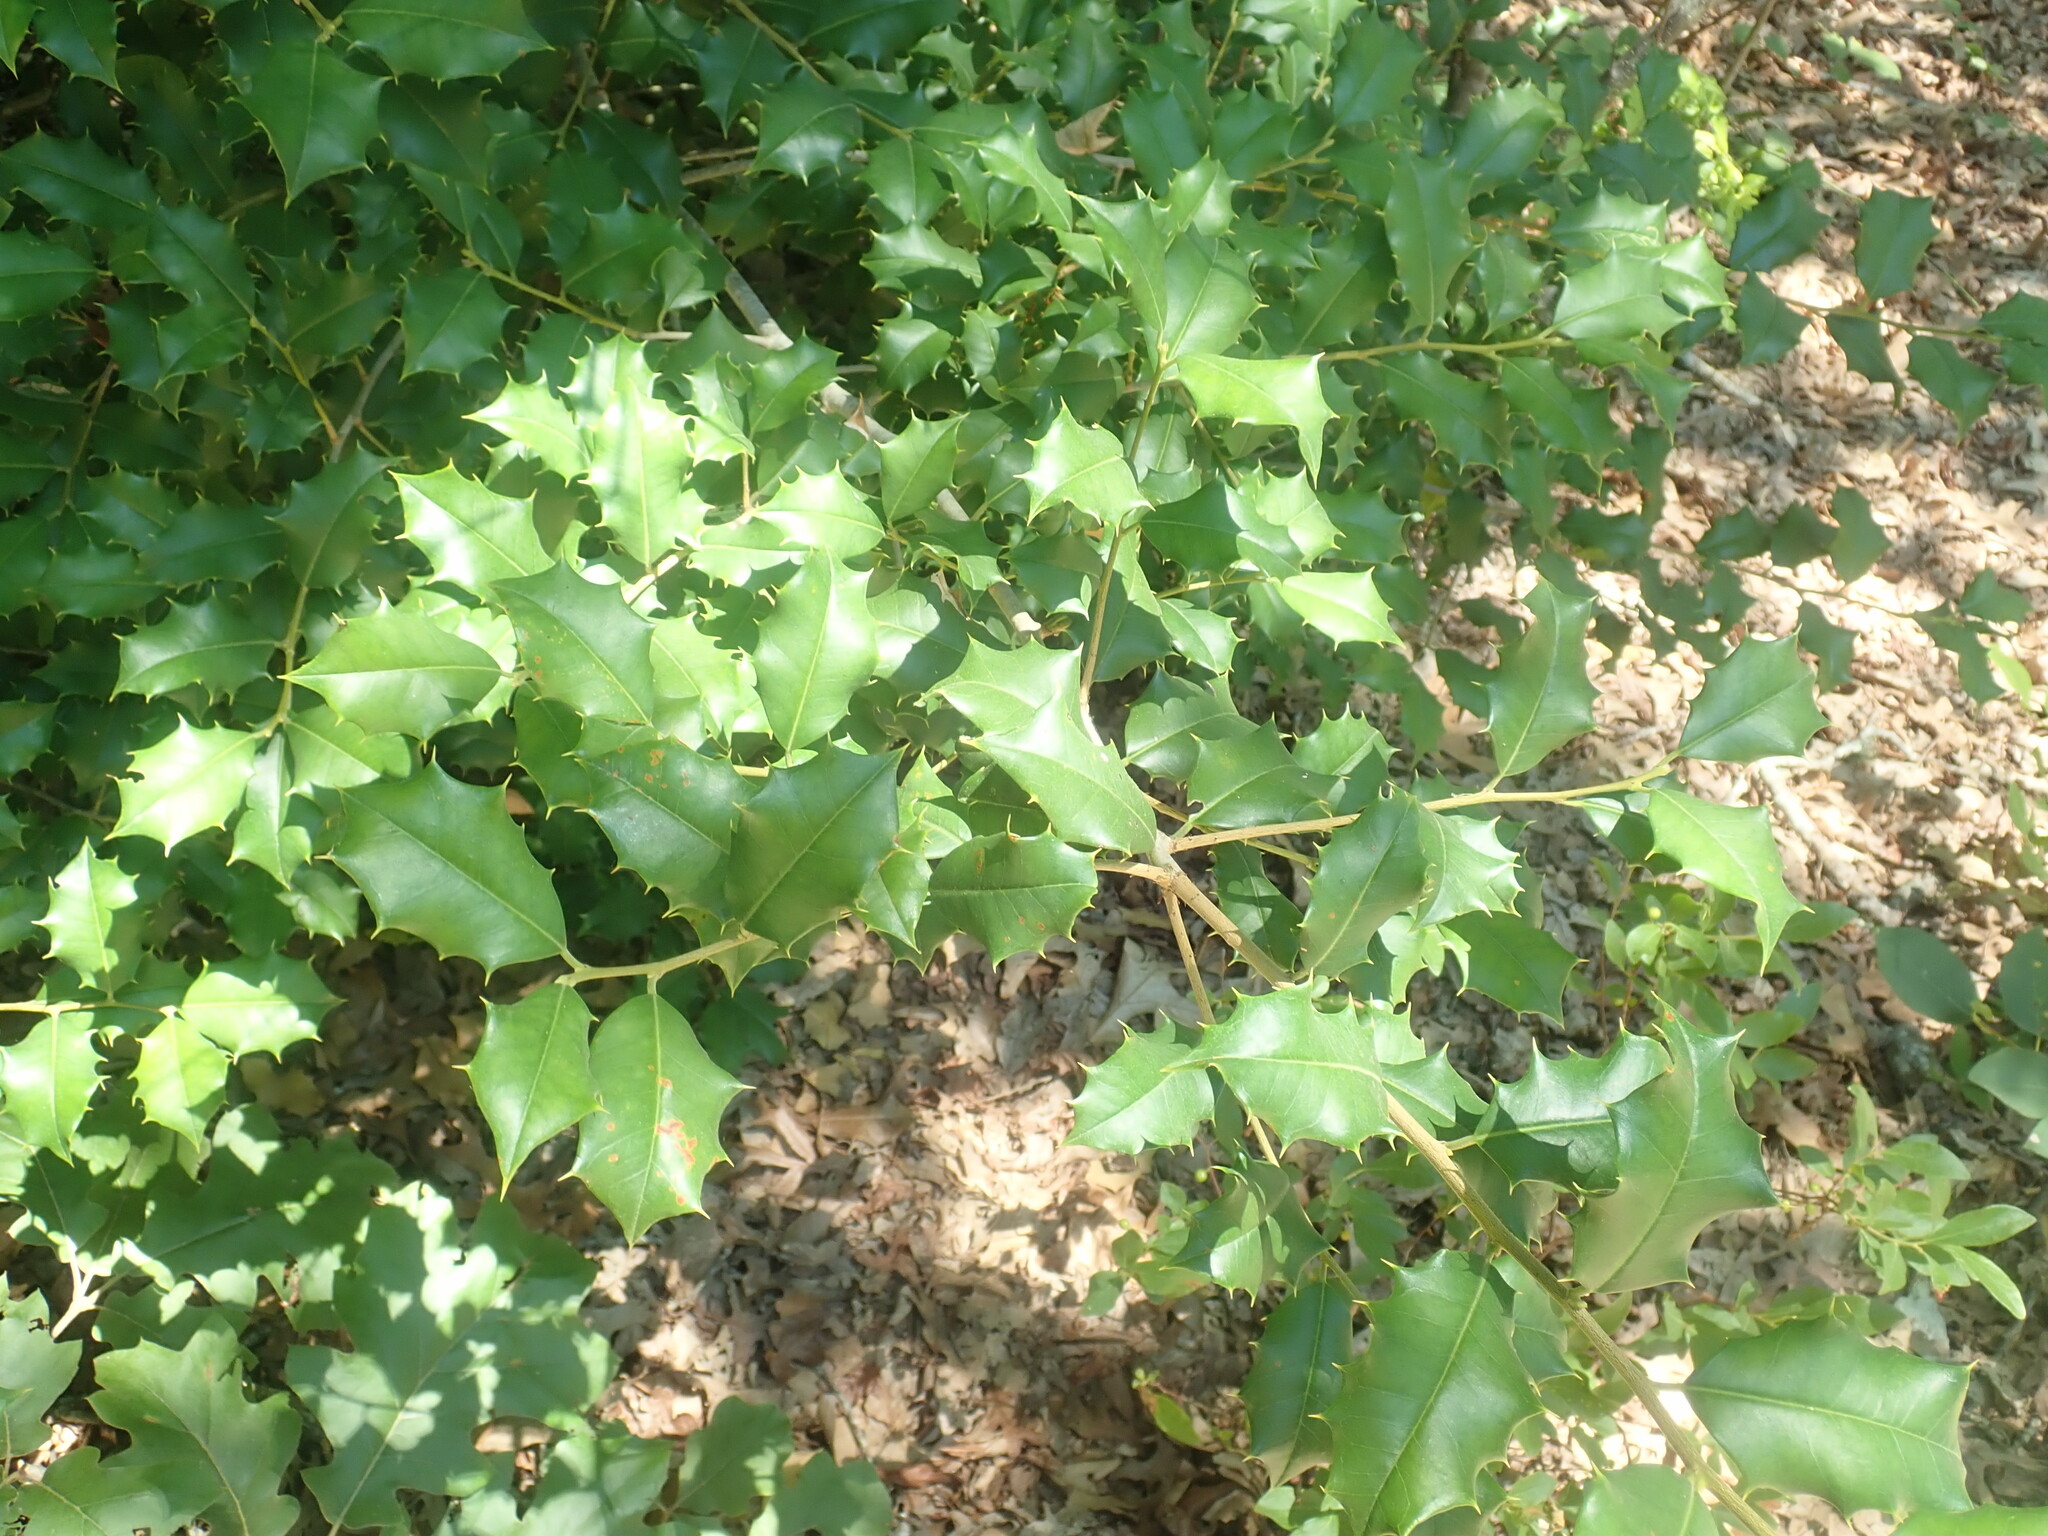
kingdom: Plantae
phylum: Tracheophyta
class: Magnoliopsida
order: Aquifoliales
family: Aquifoliaceae
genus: Ilex
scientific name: Ilex opaca
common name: American holly
